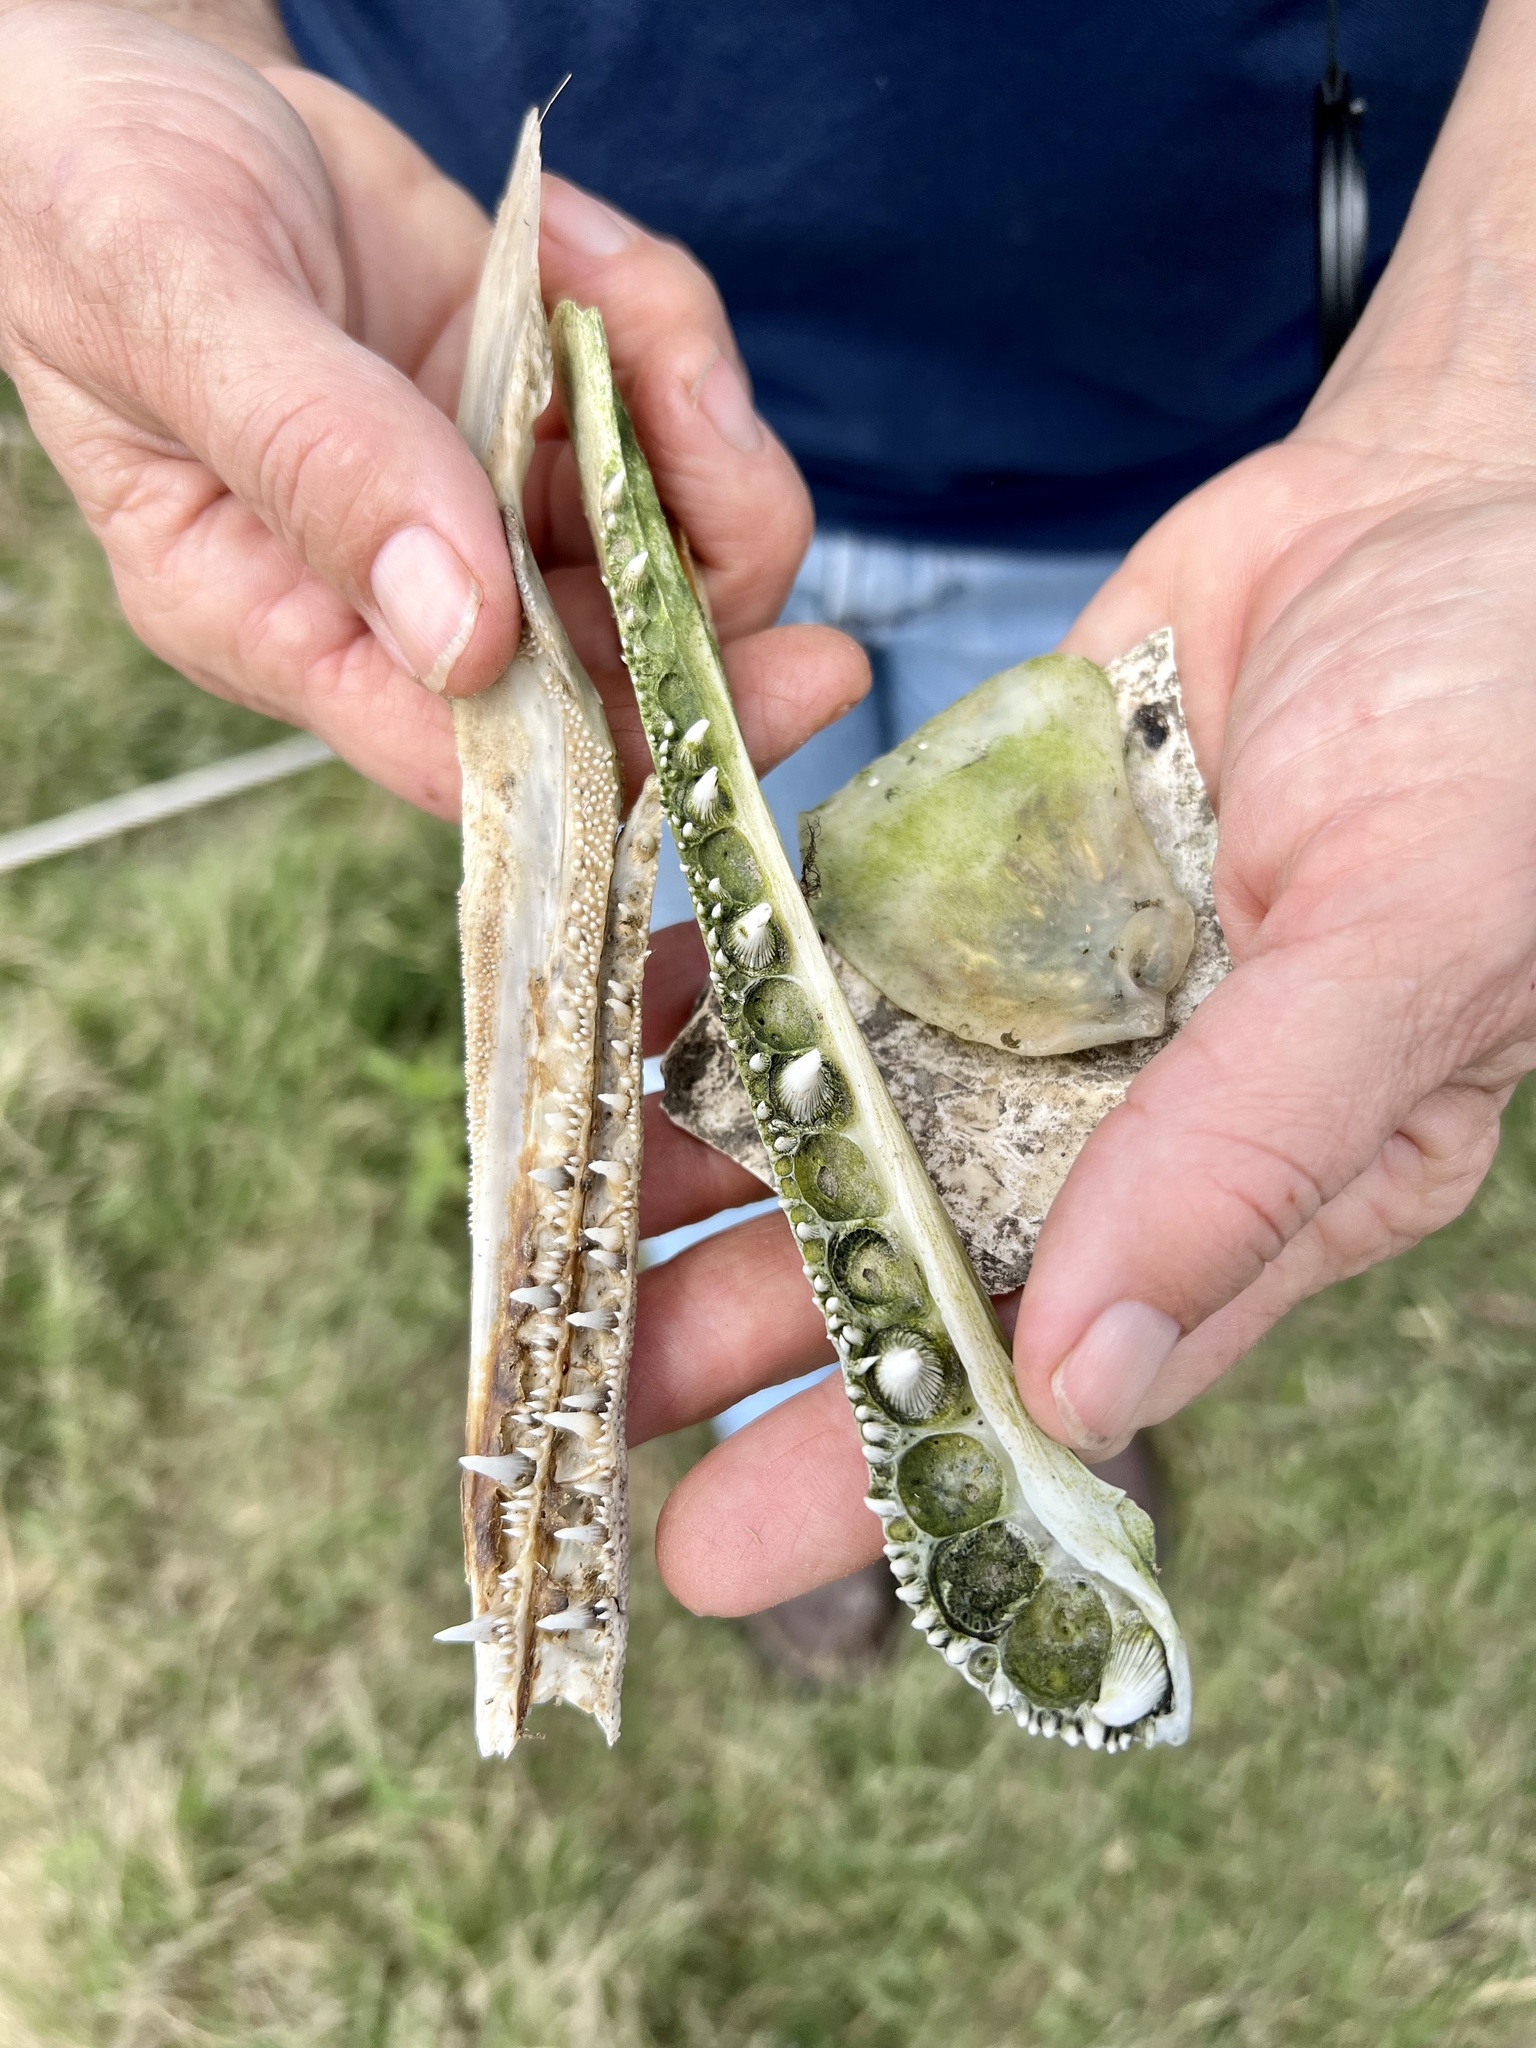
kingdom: Animalia
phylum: Chordata
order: Lepisosteiformes
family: Lepisosteidae
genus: Atractosteus
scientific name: Atractosteus spatula
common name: Alligator gar
